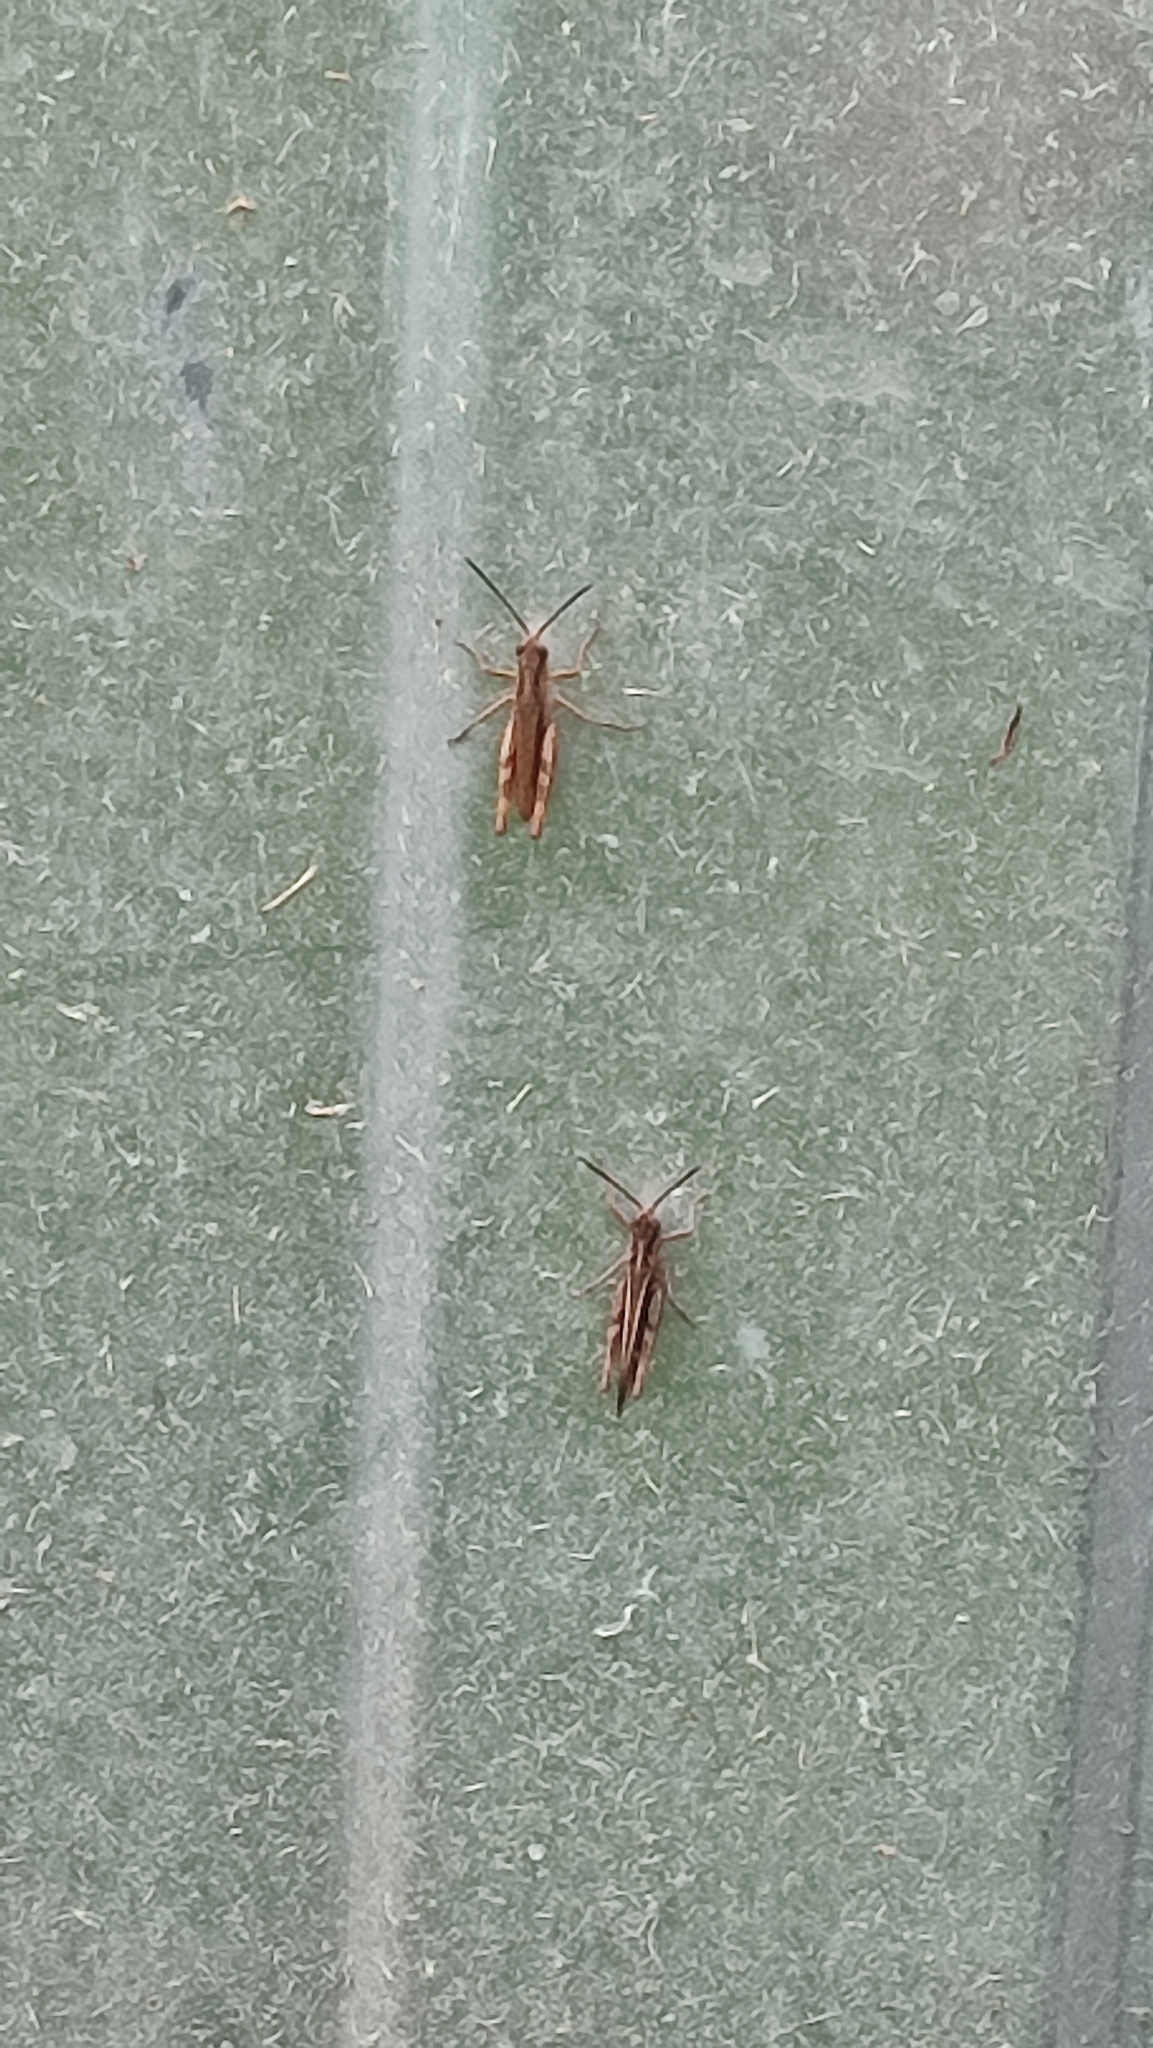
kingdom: Animalia
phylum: Arthropoda
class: Insecta
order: Orthoptera
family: Acrididae
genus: Chorthippus
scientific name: Chorthippus brunneus
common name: Field grasshopper
